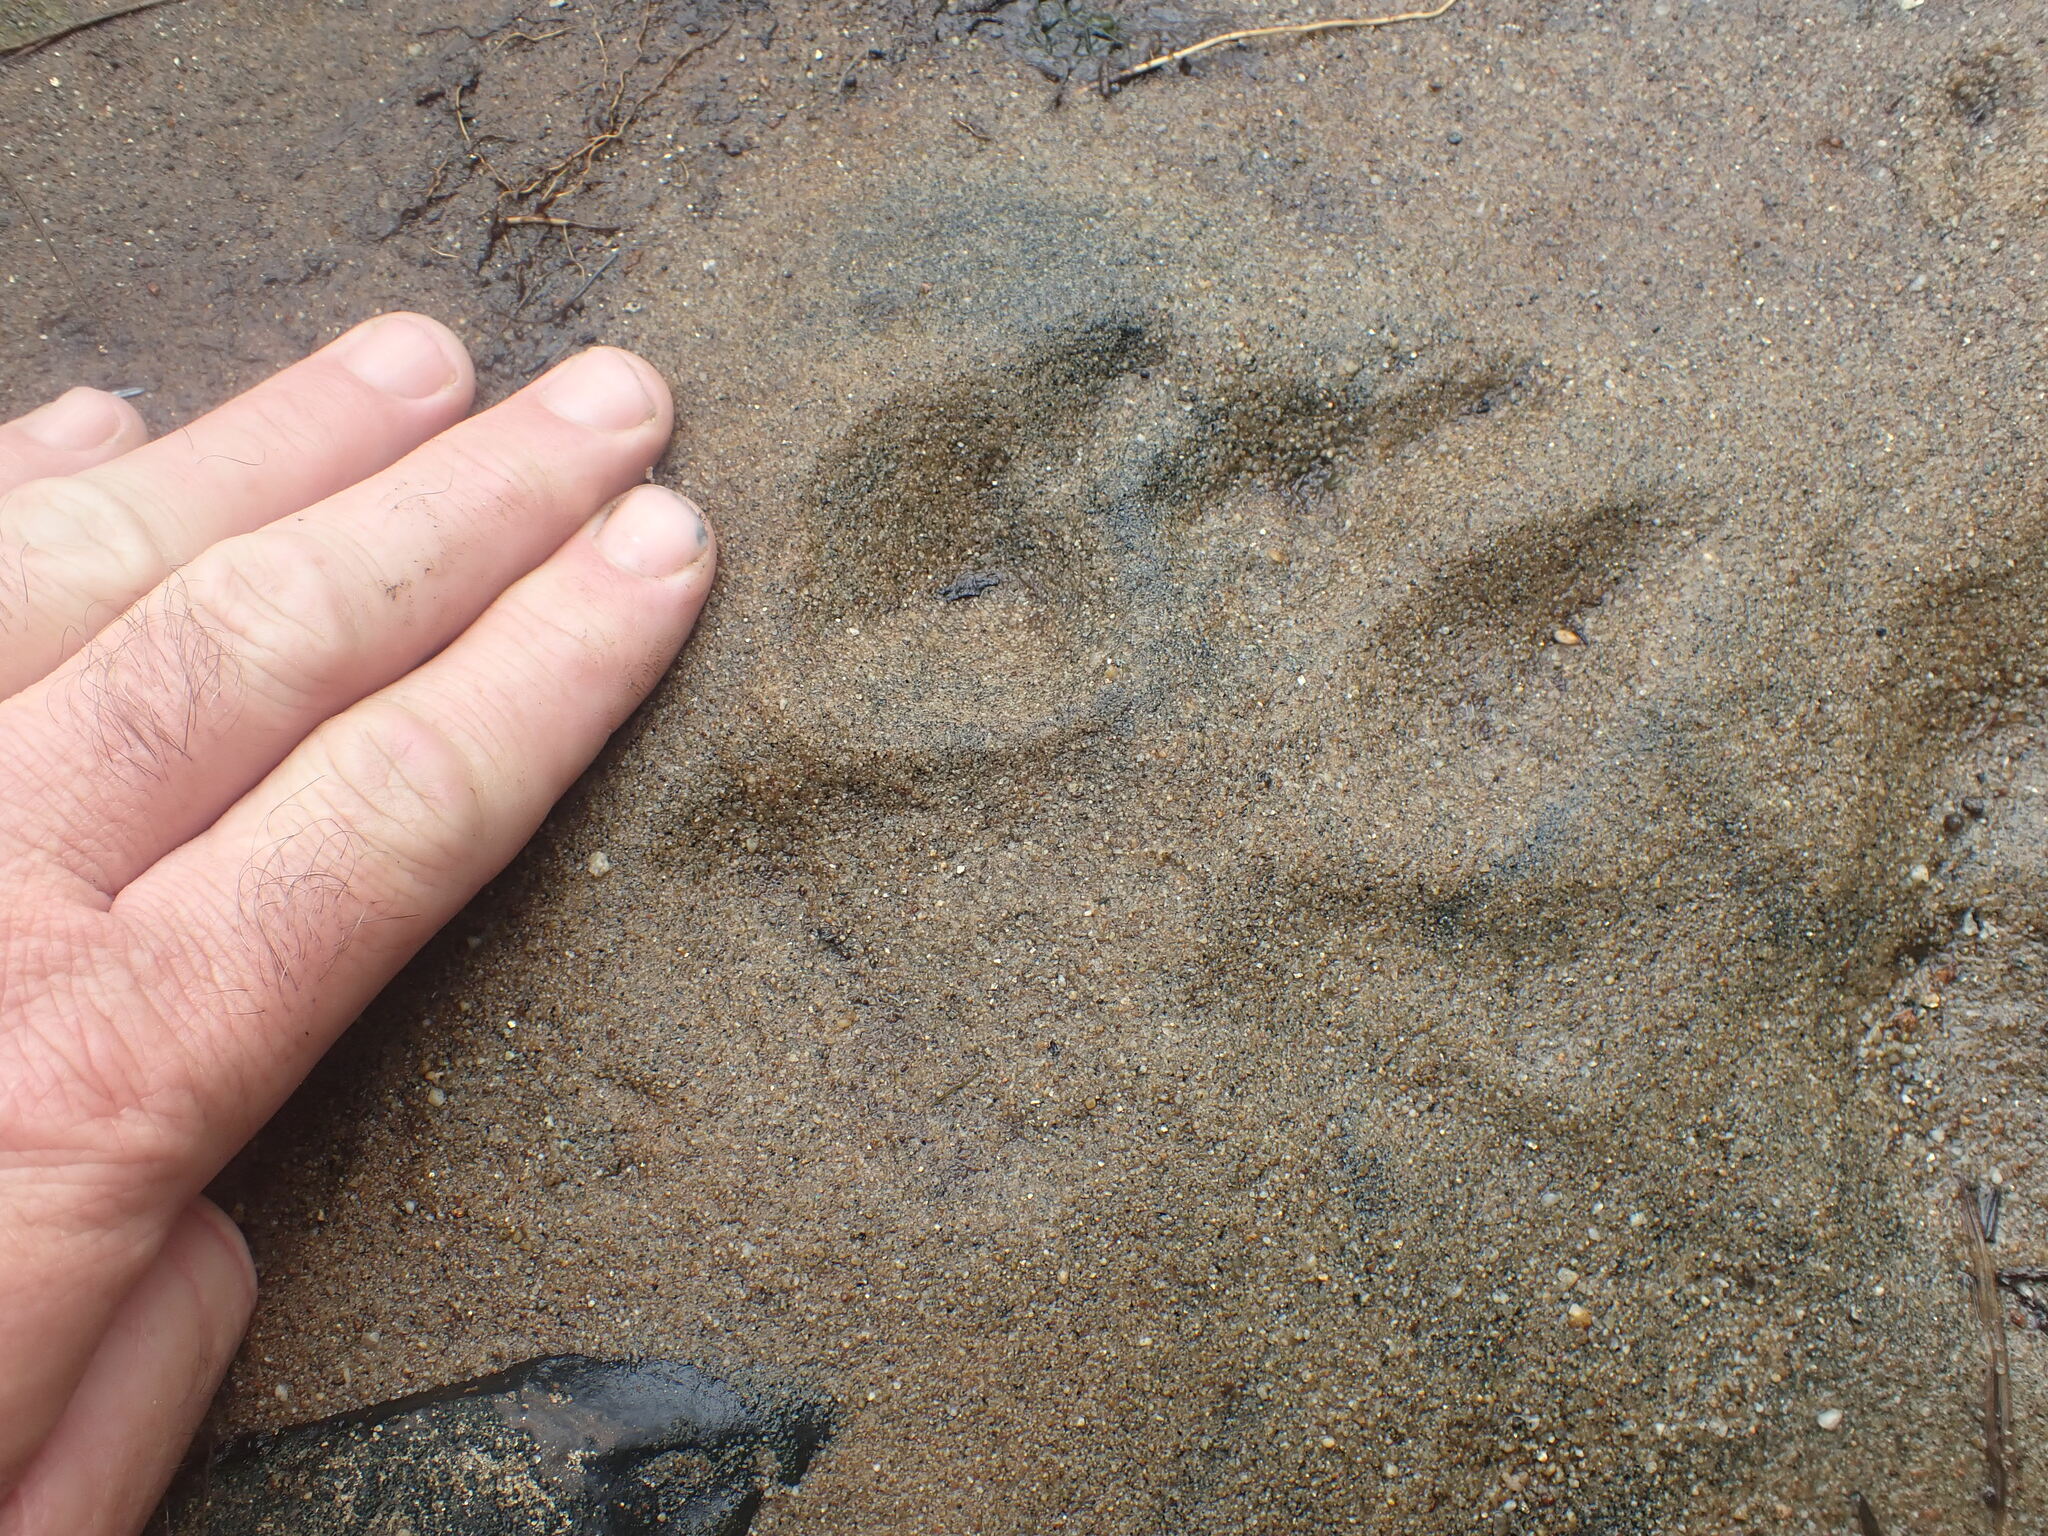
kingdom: Animalia
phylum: Chordata
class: Mammalia
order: Carnivora
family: Canidae
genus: Canis
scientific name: Canis lupus
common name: Gray wolf
